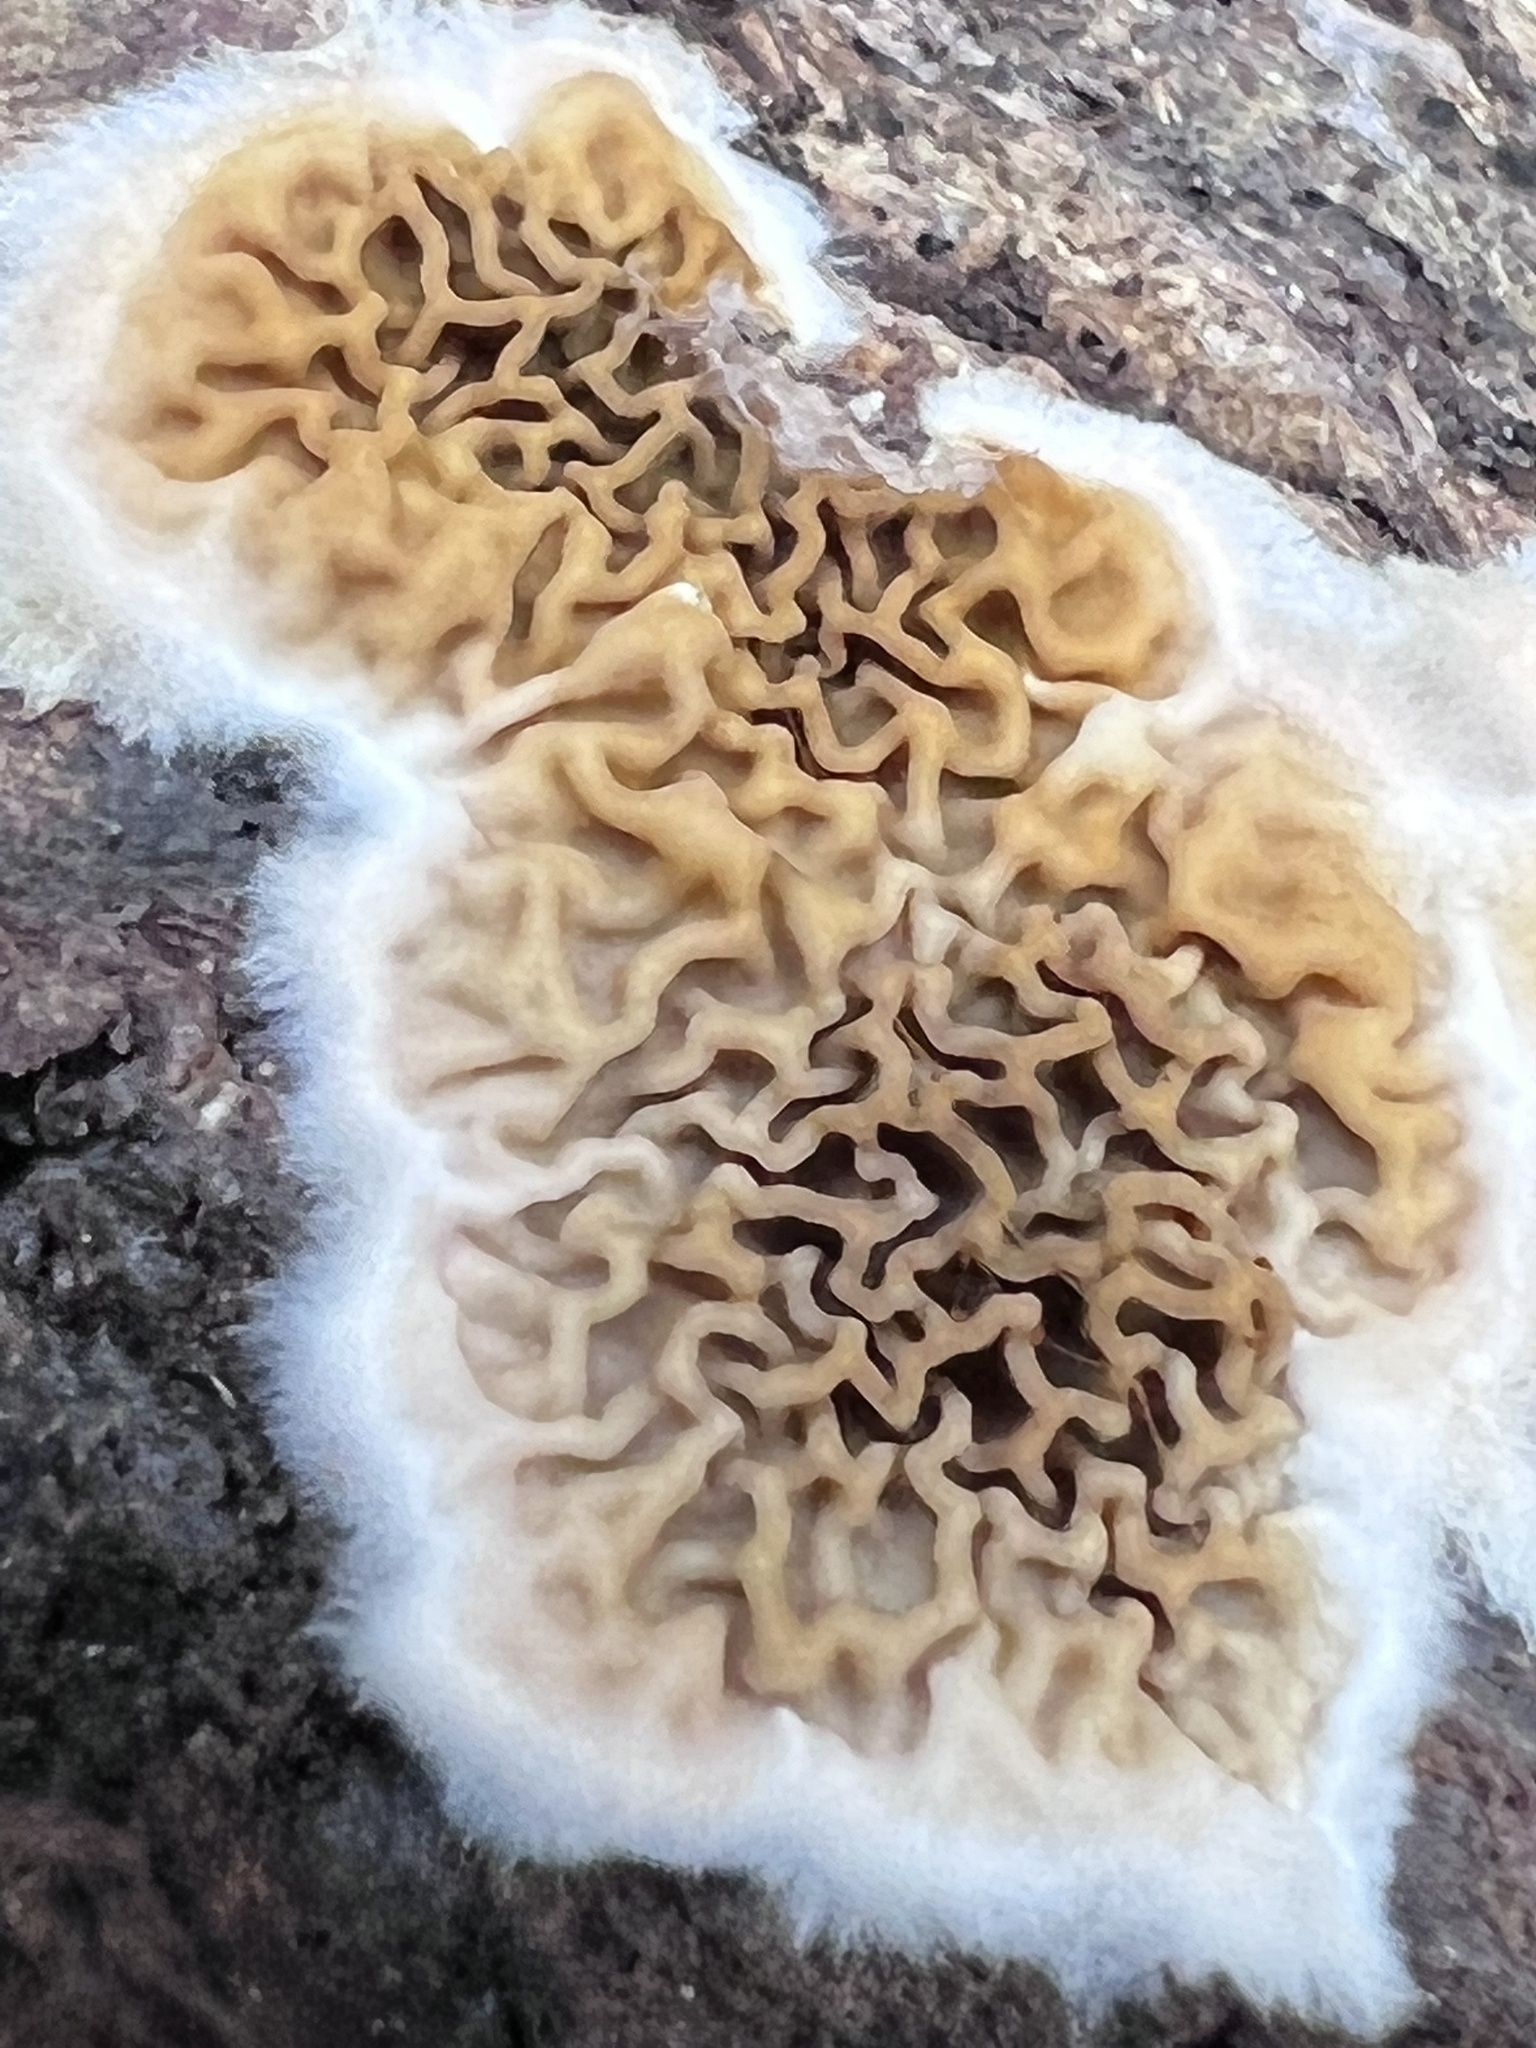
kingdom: Fungi
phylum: Basidiomycota
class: Agaricomycetes
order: Boletales
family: Serpulaceae
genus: Serpula
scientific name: Serpula himantioides
